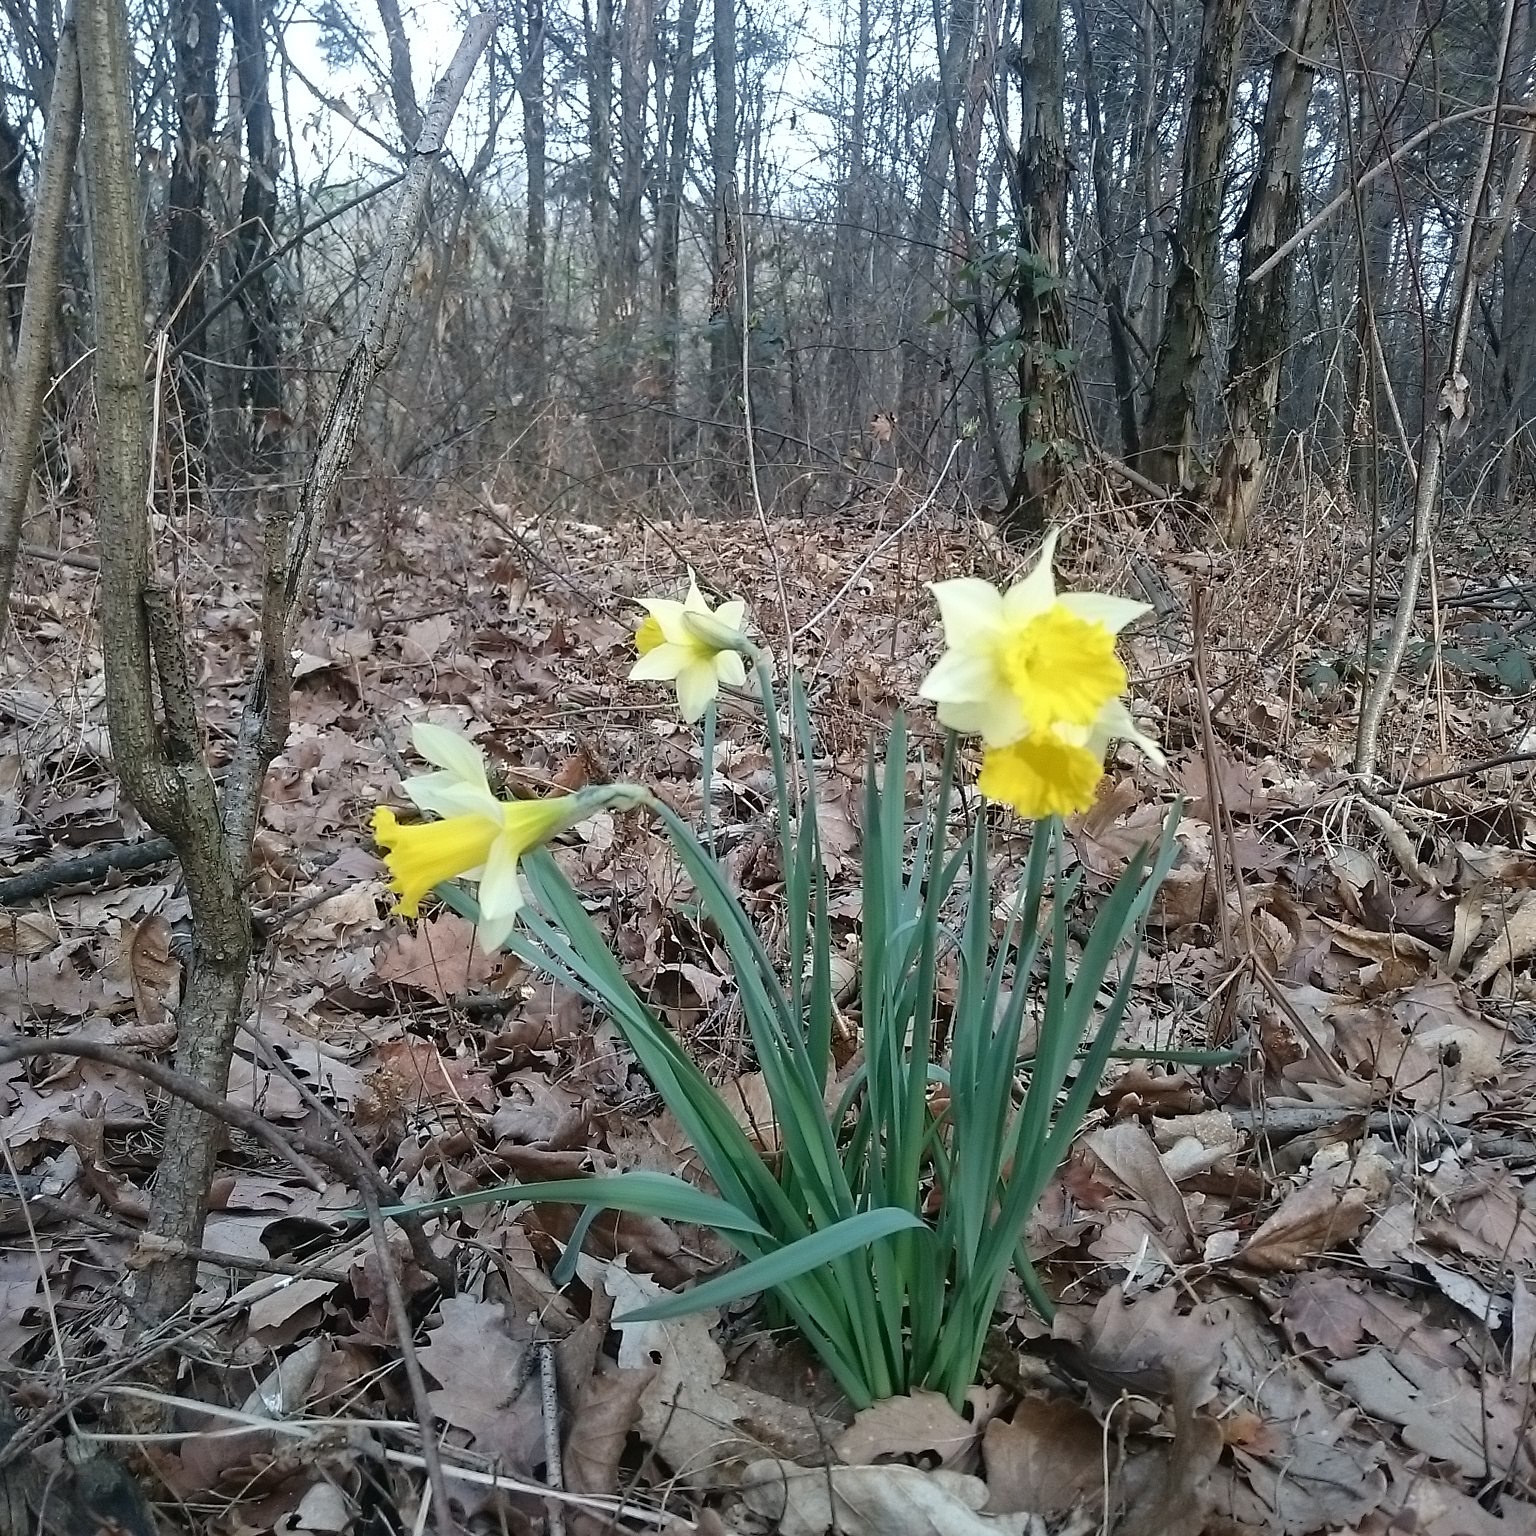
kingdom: Plantae
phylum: Tracheophyta
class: Liliopsida
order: Asparagales
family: Amaryllidaceae
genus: Narcissus
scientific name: Narcissus pseudonarcissus
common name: Daffodil
